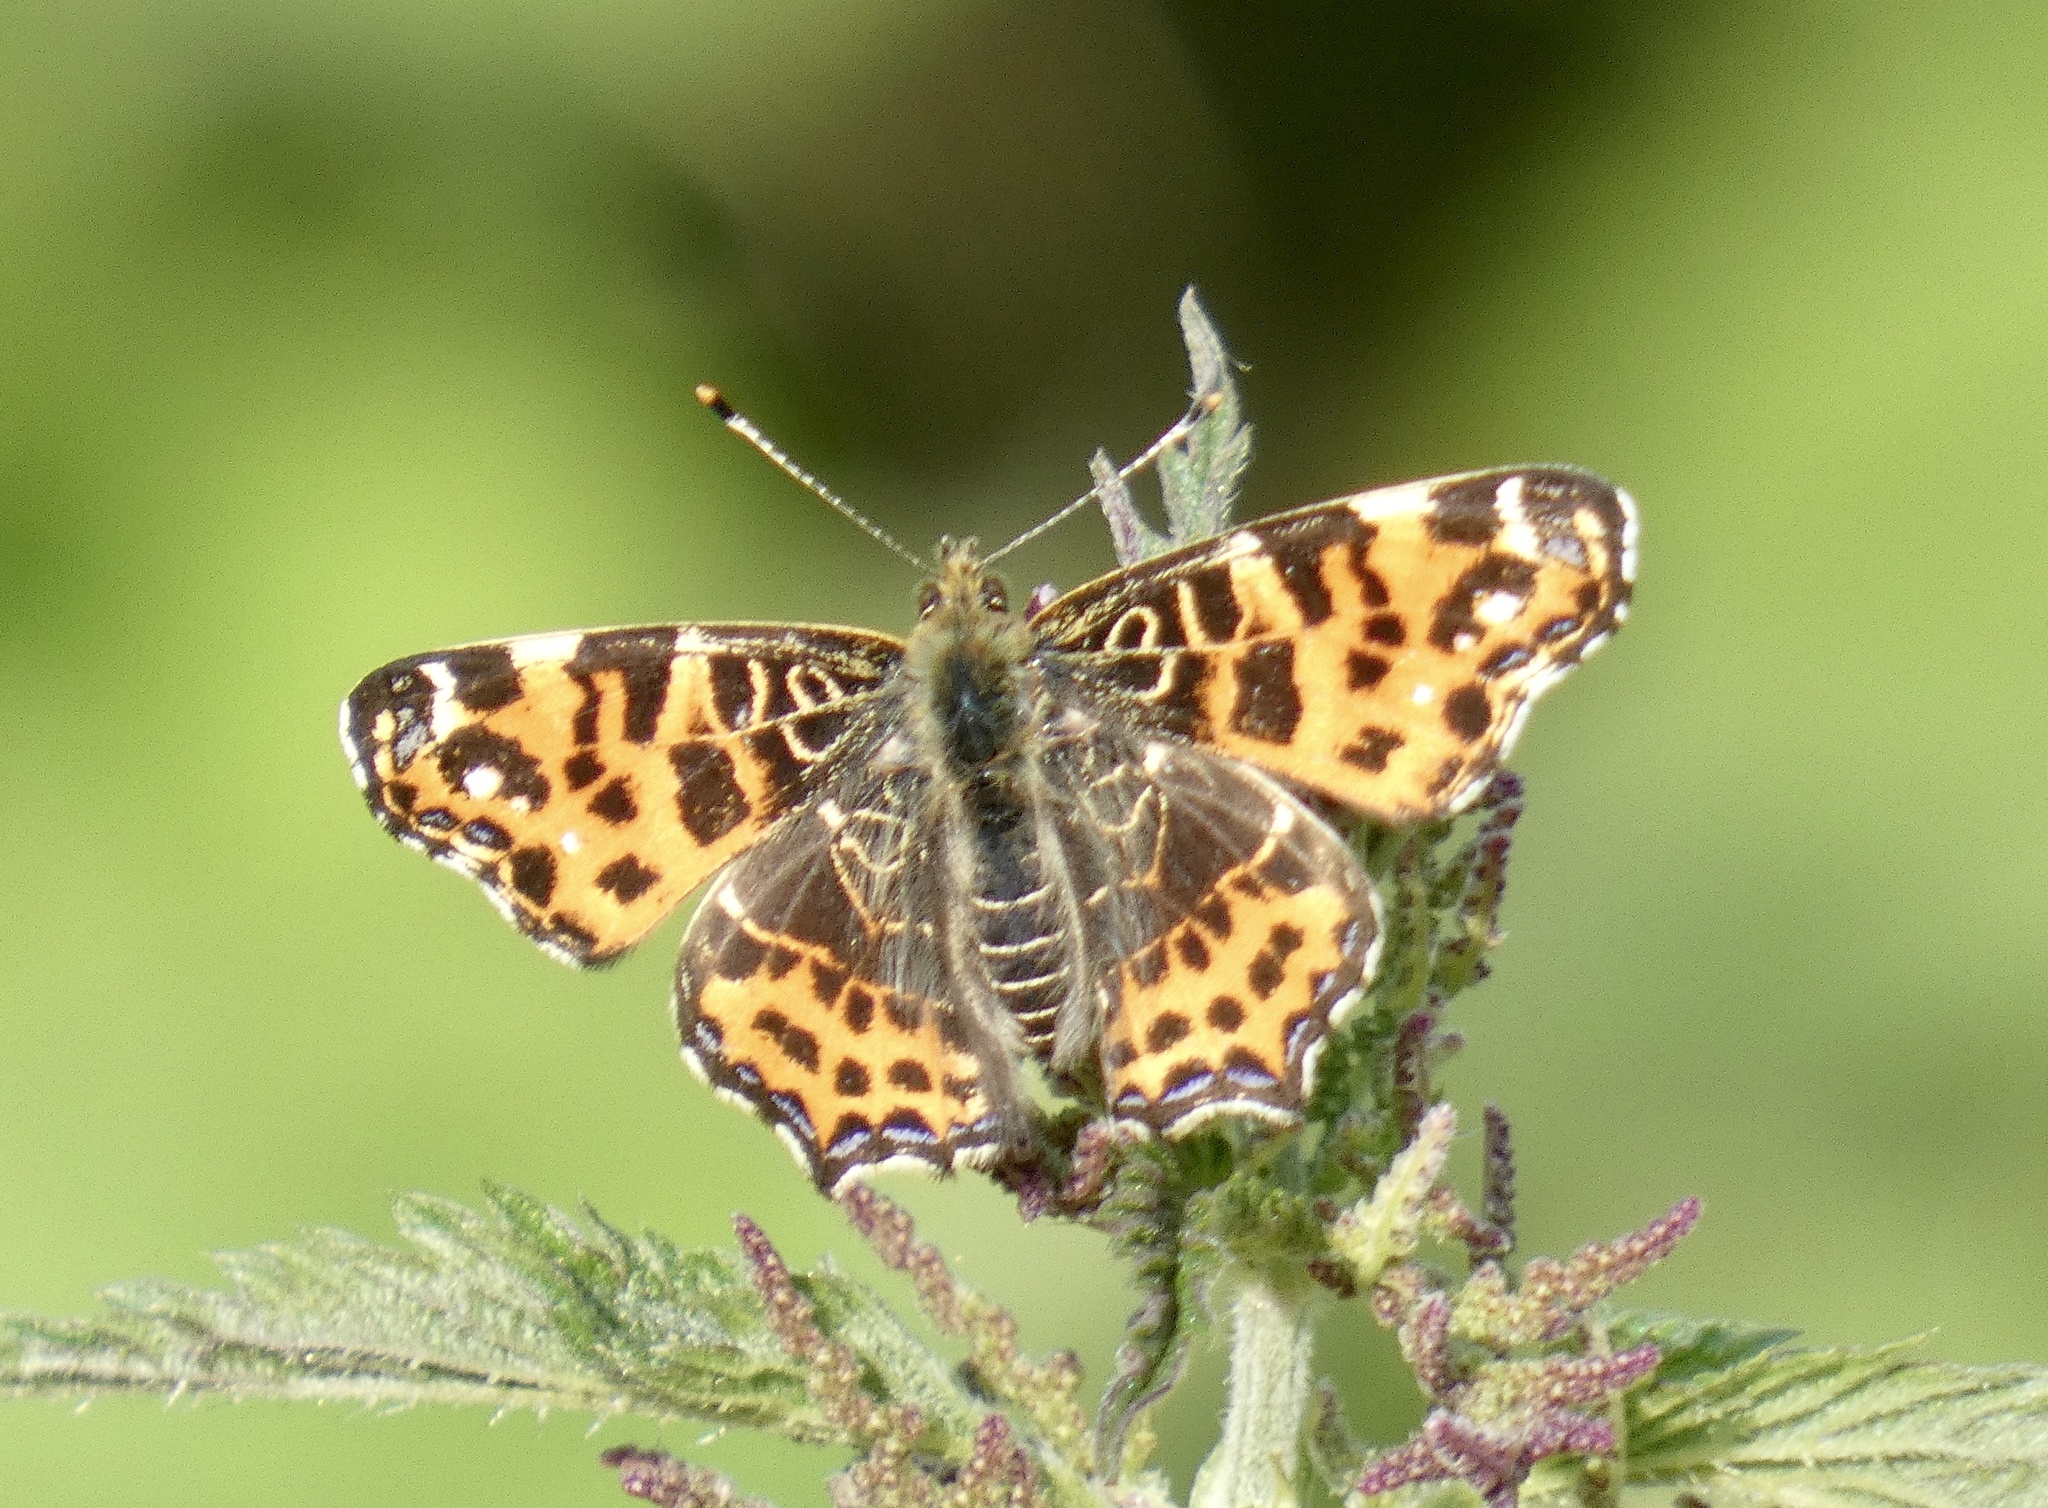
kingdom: Animalia
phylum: Arthropoda
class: Insecta
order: Lepidoptera
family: Nymphalidae
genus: Araschnia
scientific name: Araschnia levana
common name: Map butterfly
